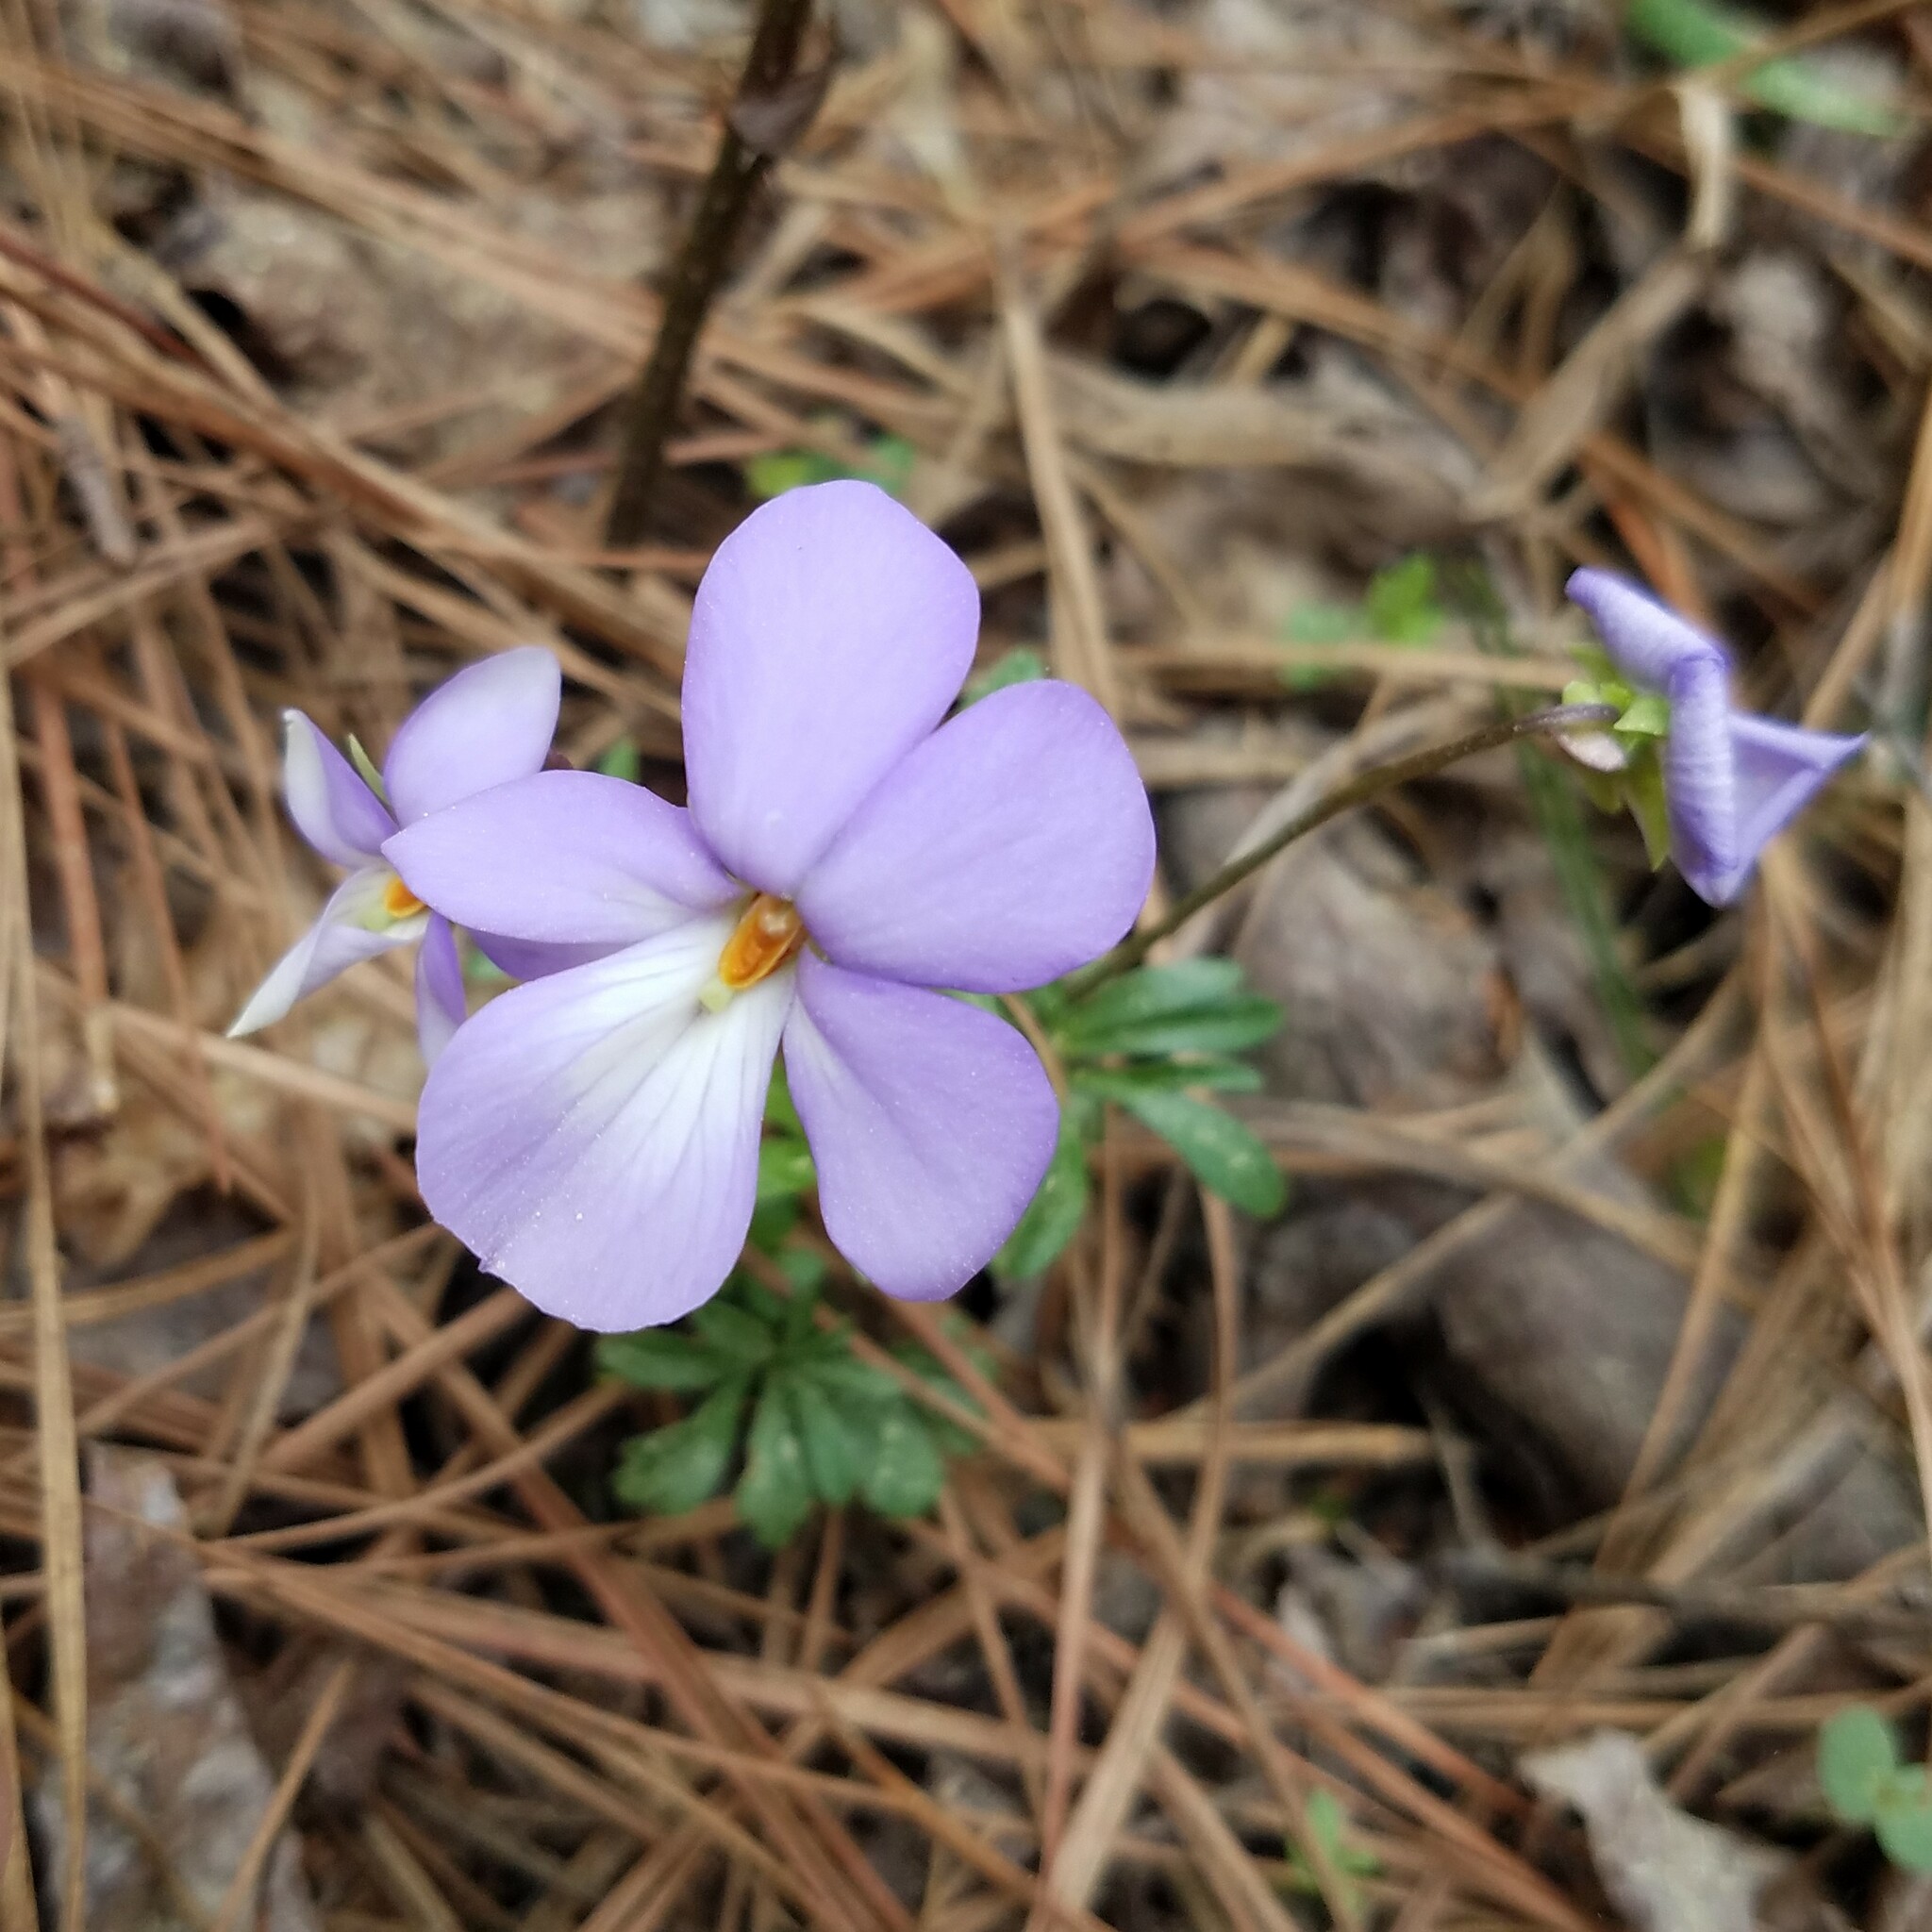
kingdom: Plantae
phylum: Tracheophyta
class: Magnoliopsida
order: Malpighiales
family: Violaceae
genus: Viola
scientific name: Viola pedata
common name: Pansy violet
